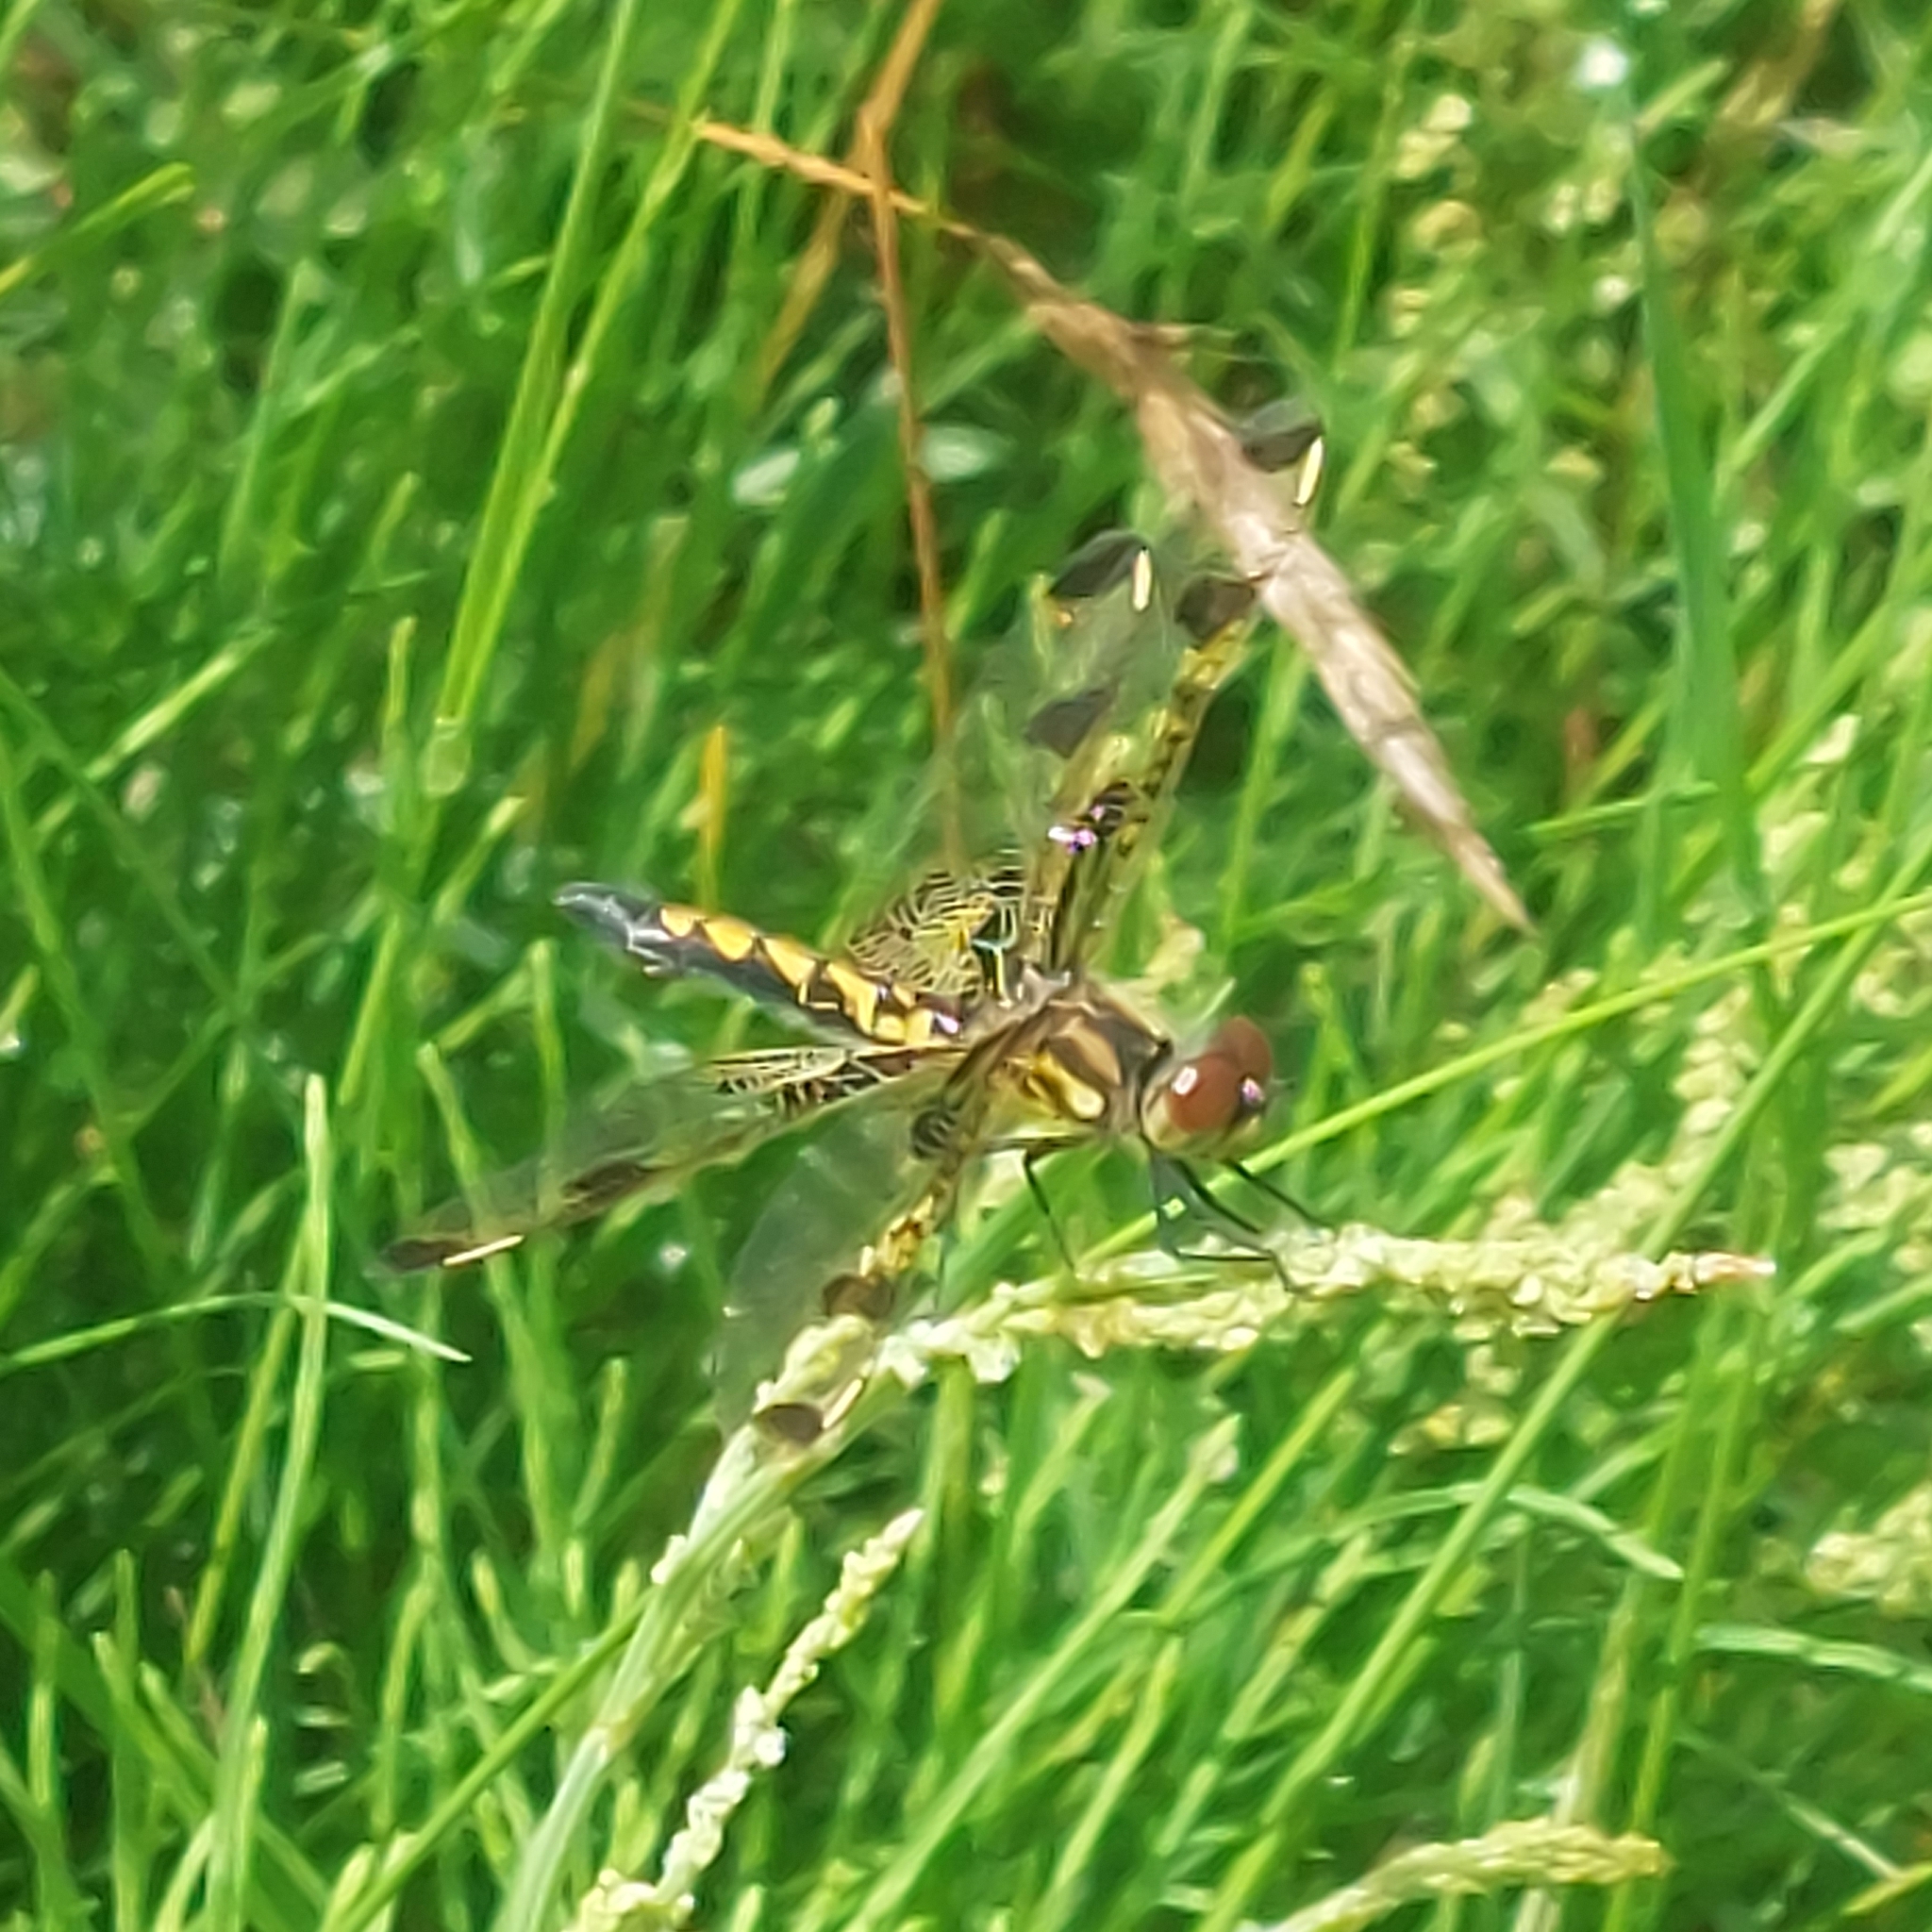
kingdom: Animalia
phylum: Arthropoda
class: Insecta
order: Odonata
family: Libellulidae
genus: Celithemis
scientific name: Celithemis elisa
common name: Calico pennant
